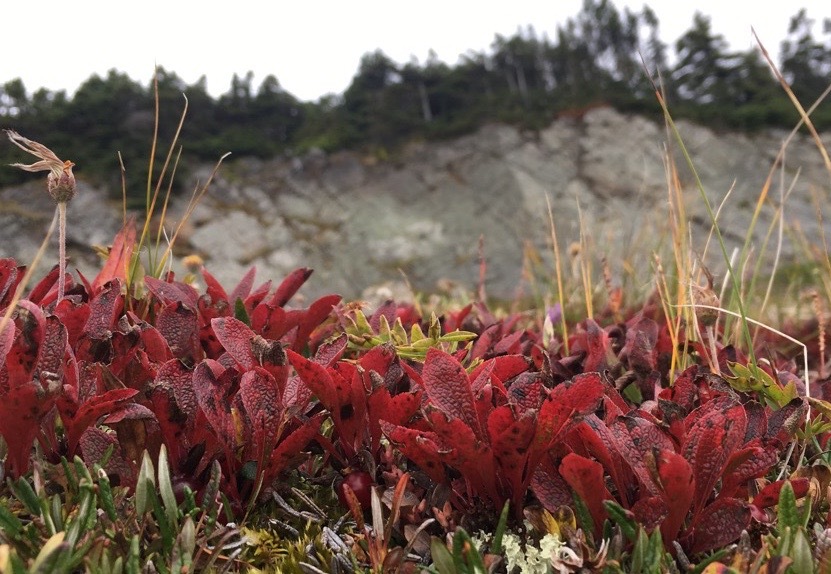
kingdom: Plantae
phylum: Tracheophyta
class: Magnoliopsida
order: Ericales
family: Ericaceae
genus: Arctostaphylos
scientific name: Arctostaphylos rubra
